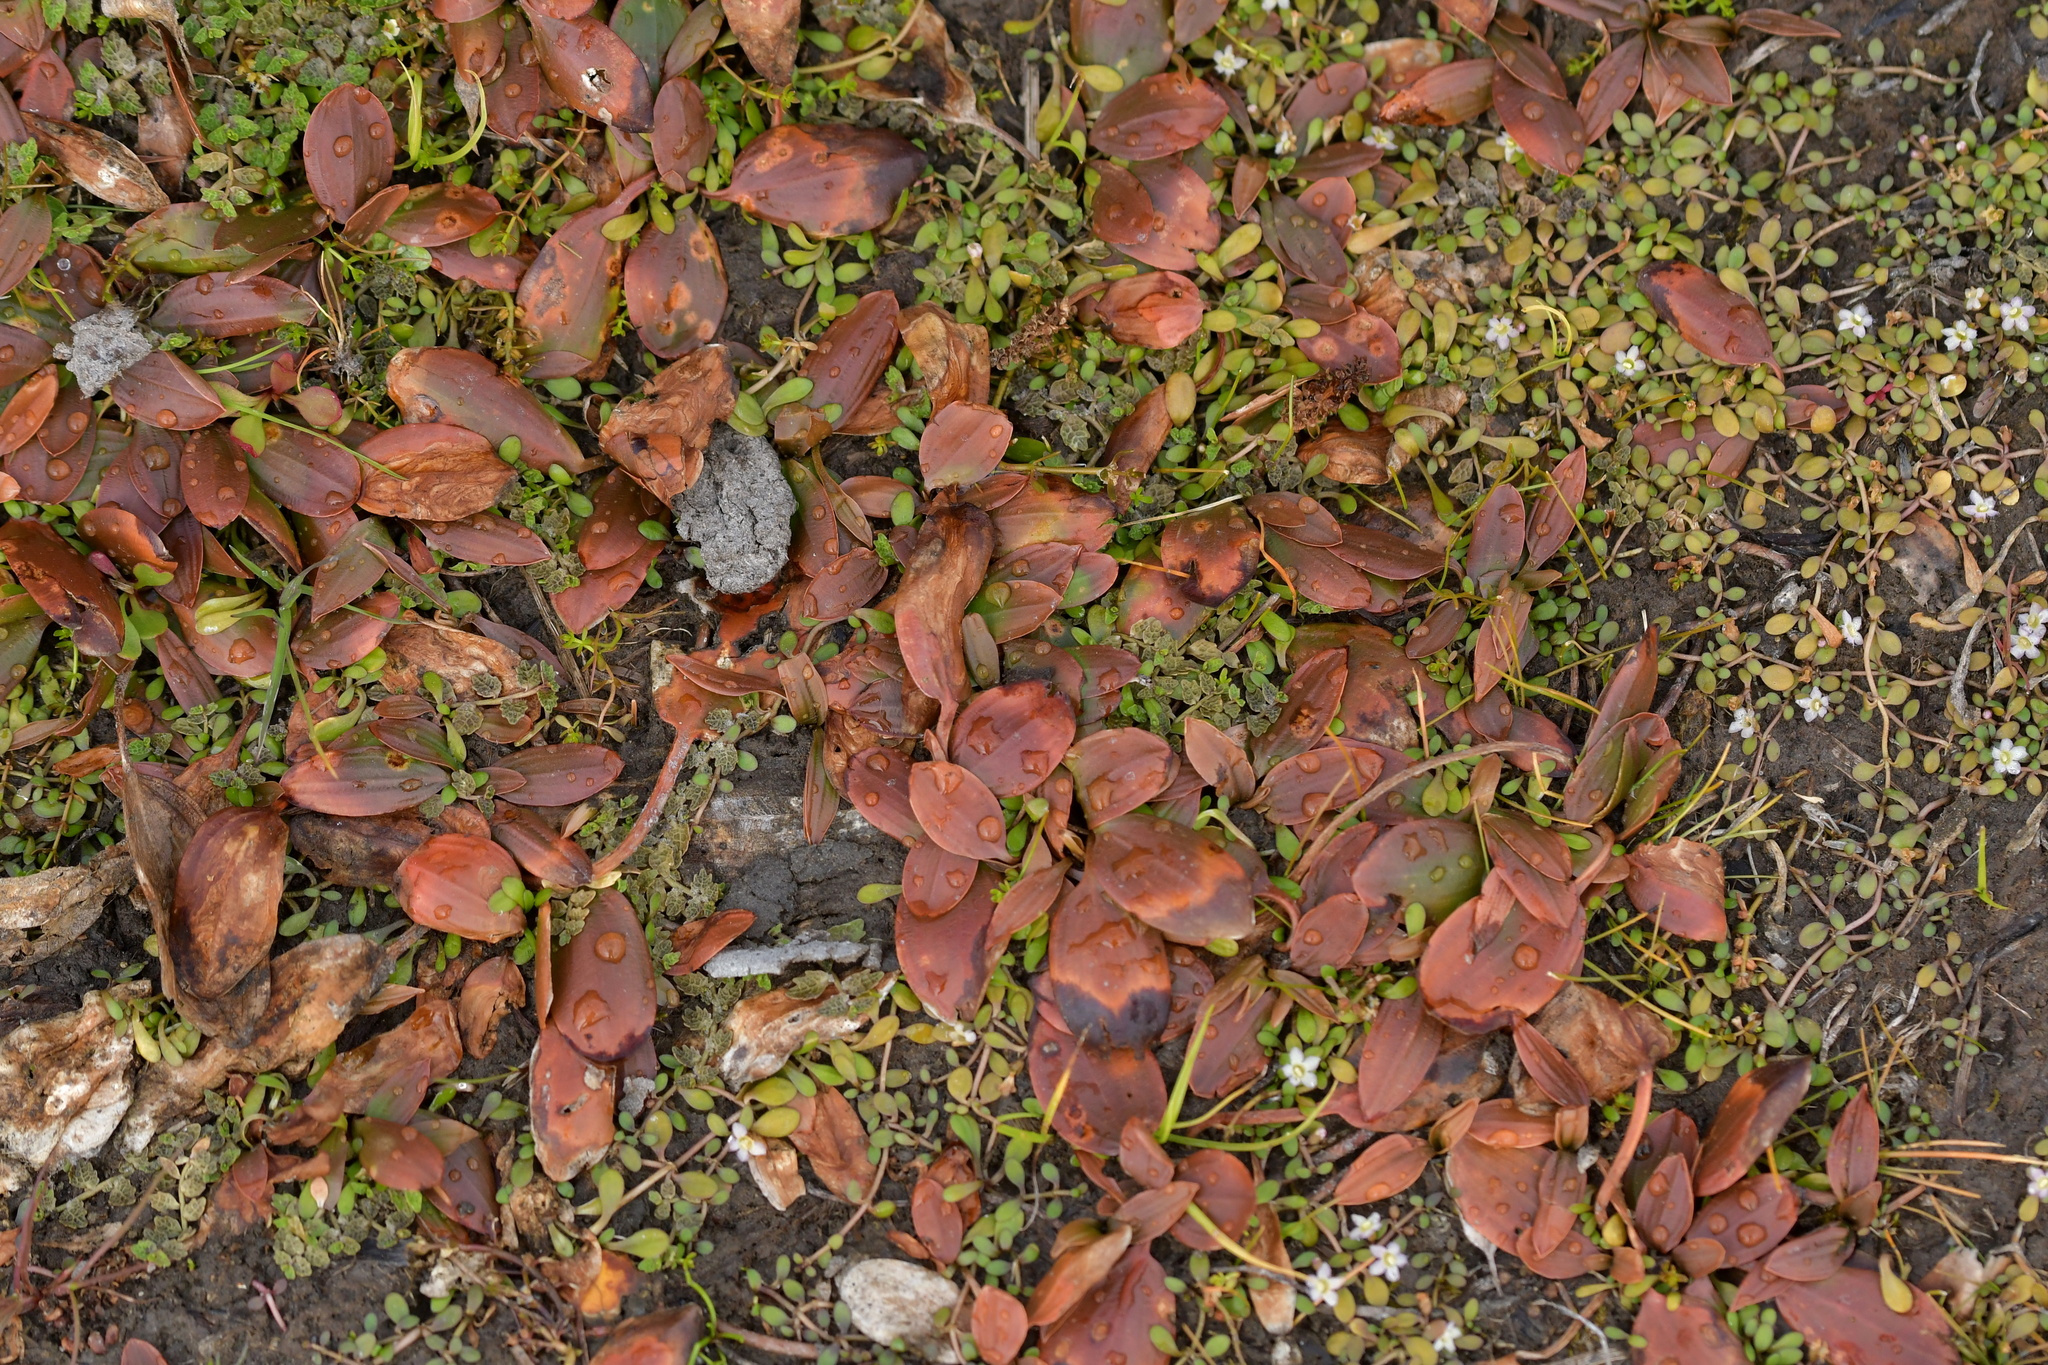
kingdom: Plantae
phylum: Tracheophyta
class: Liliopsida
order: Alismatales
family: Potamogetonaceae
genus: Potamogeton
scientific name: Potamogeton cheesemanii
